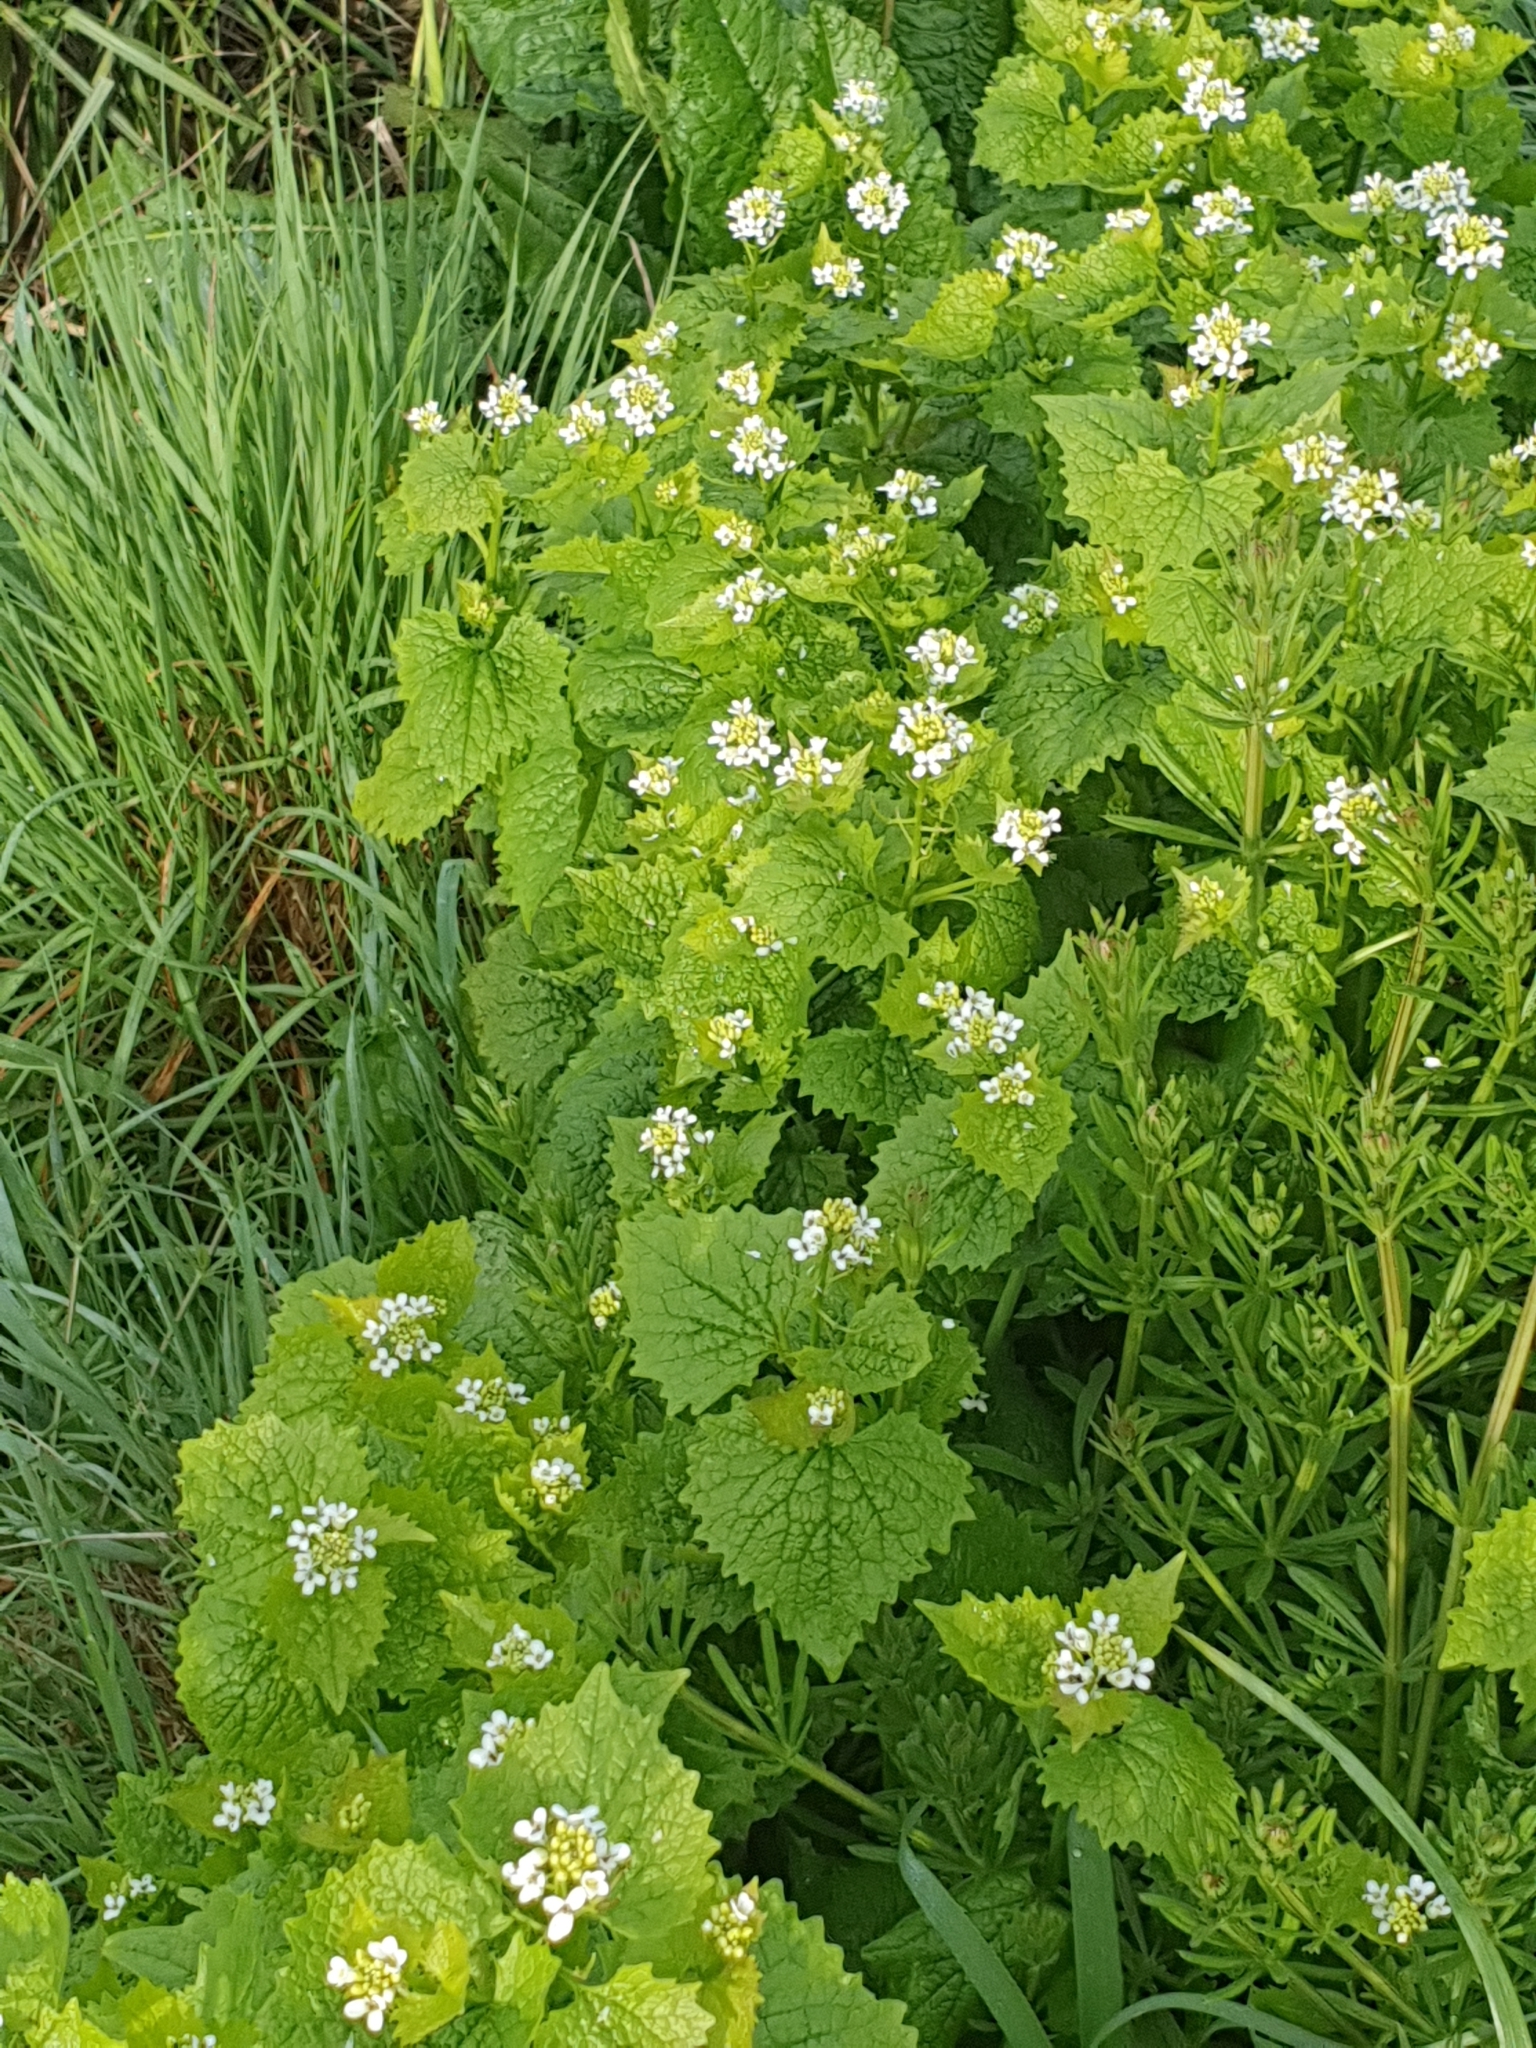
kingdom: Plantae
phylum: Tracheophyta
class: Magnoliopsida
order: Brassicales
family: Brassicaceae
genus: Alliaria
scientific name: Alliaria petiolata
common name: Garlic mustard
